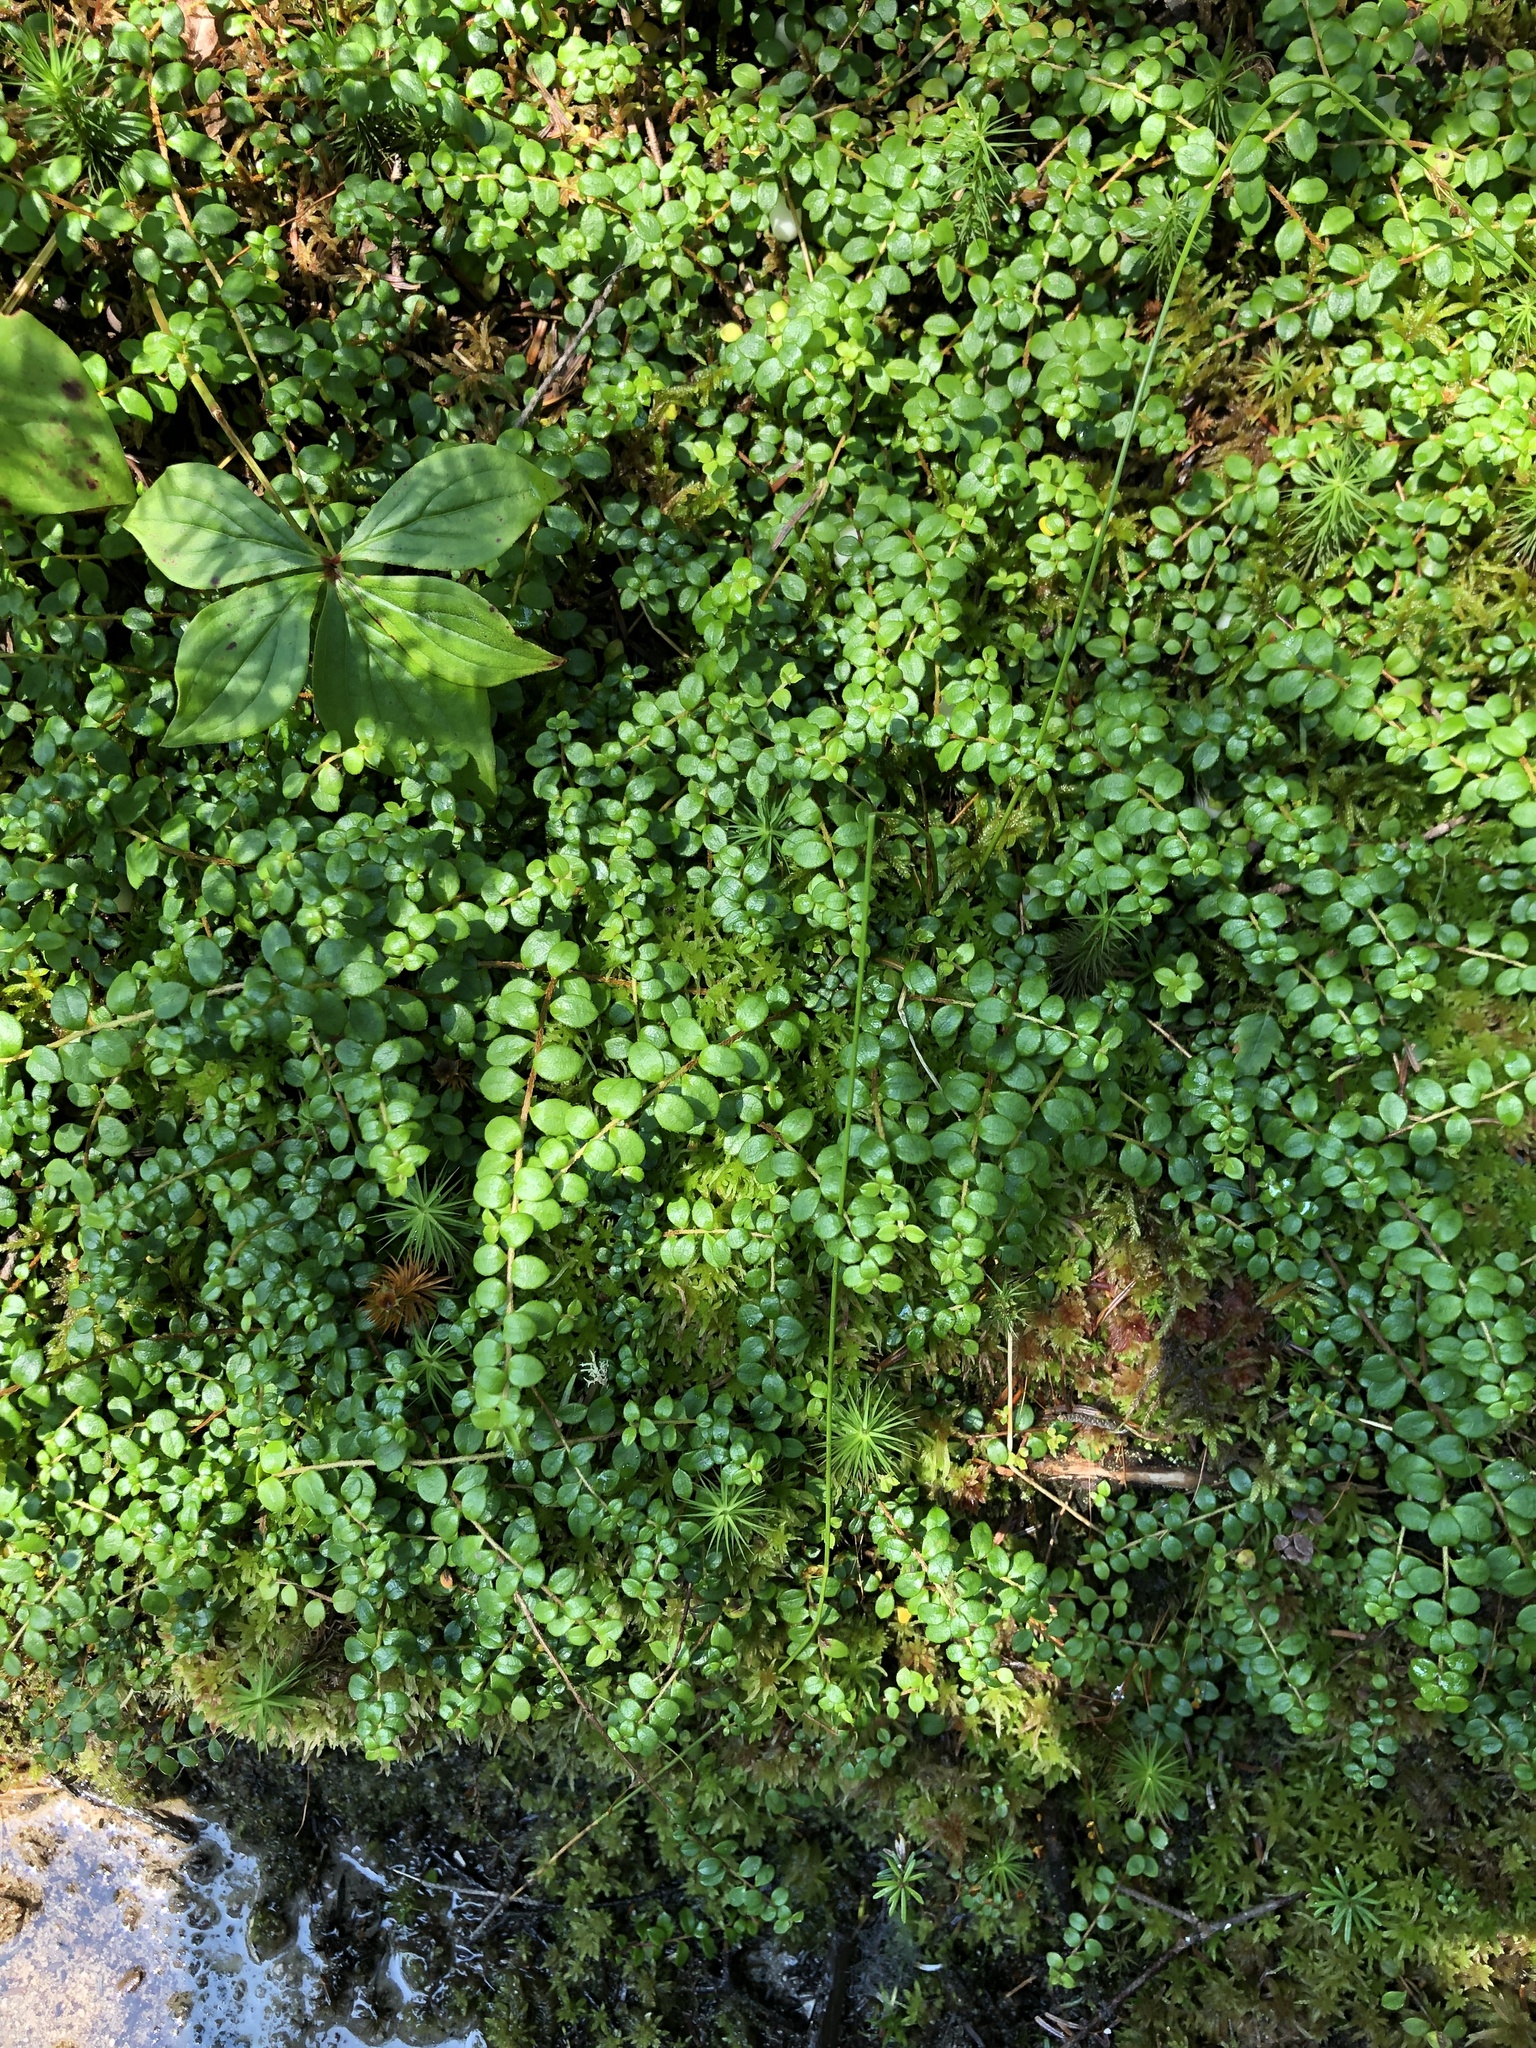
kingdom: Plantae
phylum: Tracheophyta
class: Magnoliopsida
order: Ericales
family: Ericaceae
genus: Gaultheria
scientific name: Gaultheria hispidula
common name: Cancer wintergreen
